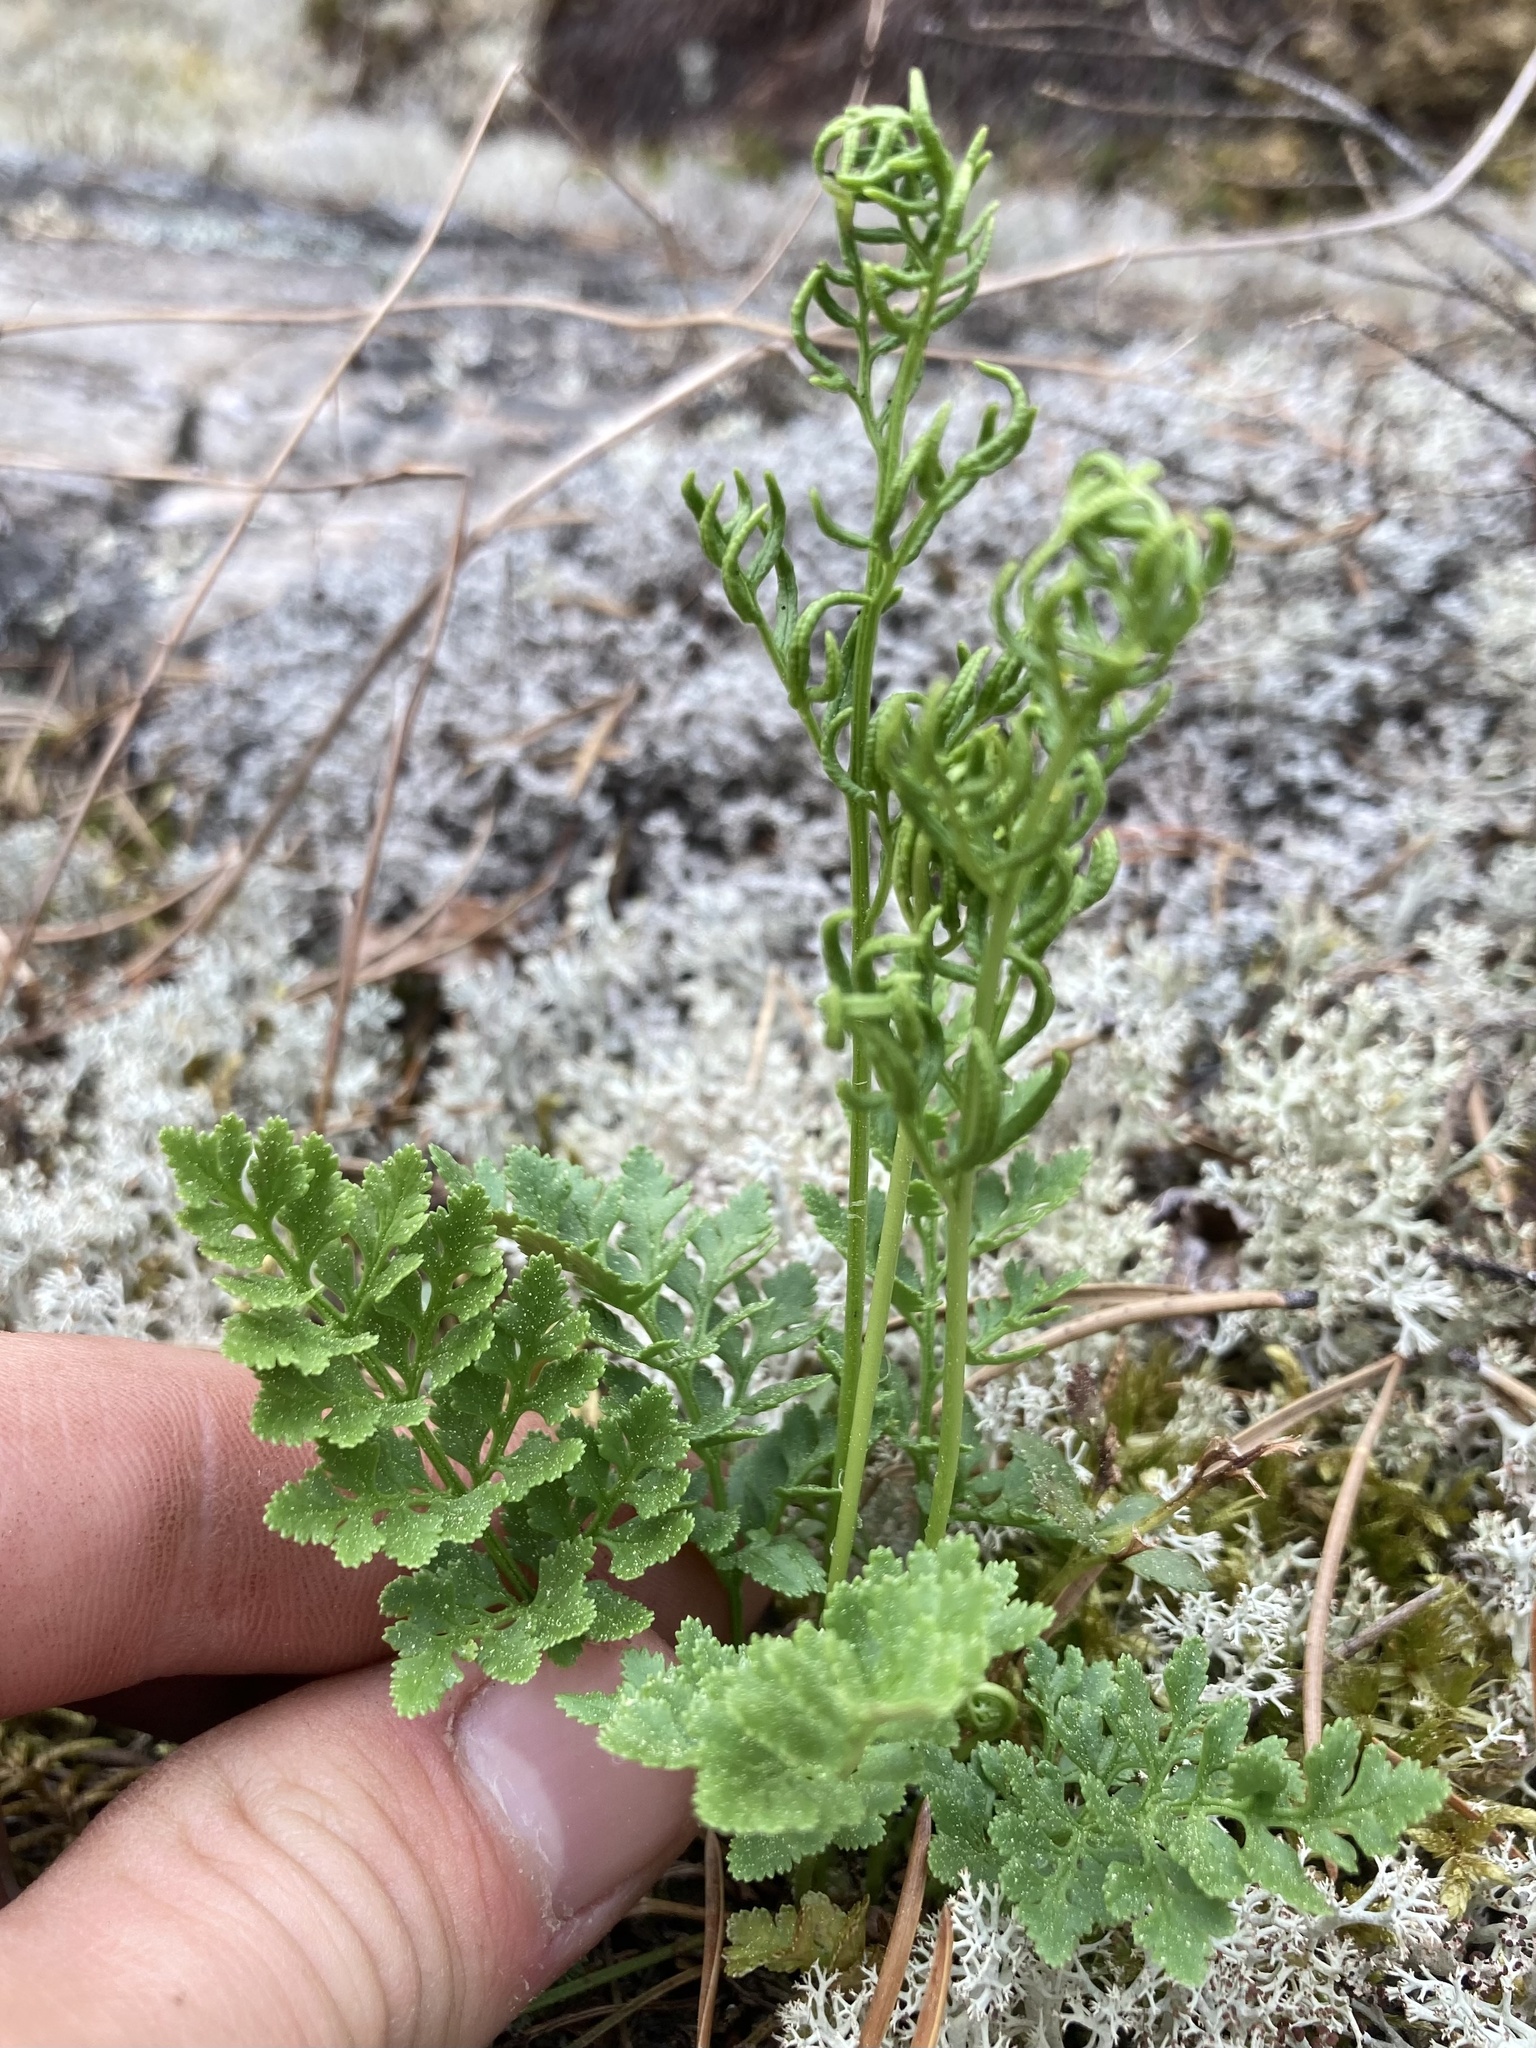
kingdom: Plantae
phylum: Tracheophyta
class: Polypodiopsida
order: Polypodiales
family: Pteridaceae
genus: Cryptogramma
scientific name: Cryptogramma acrostichoides
